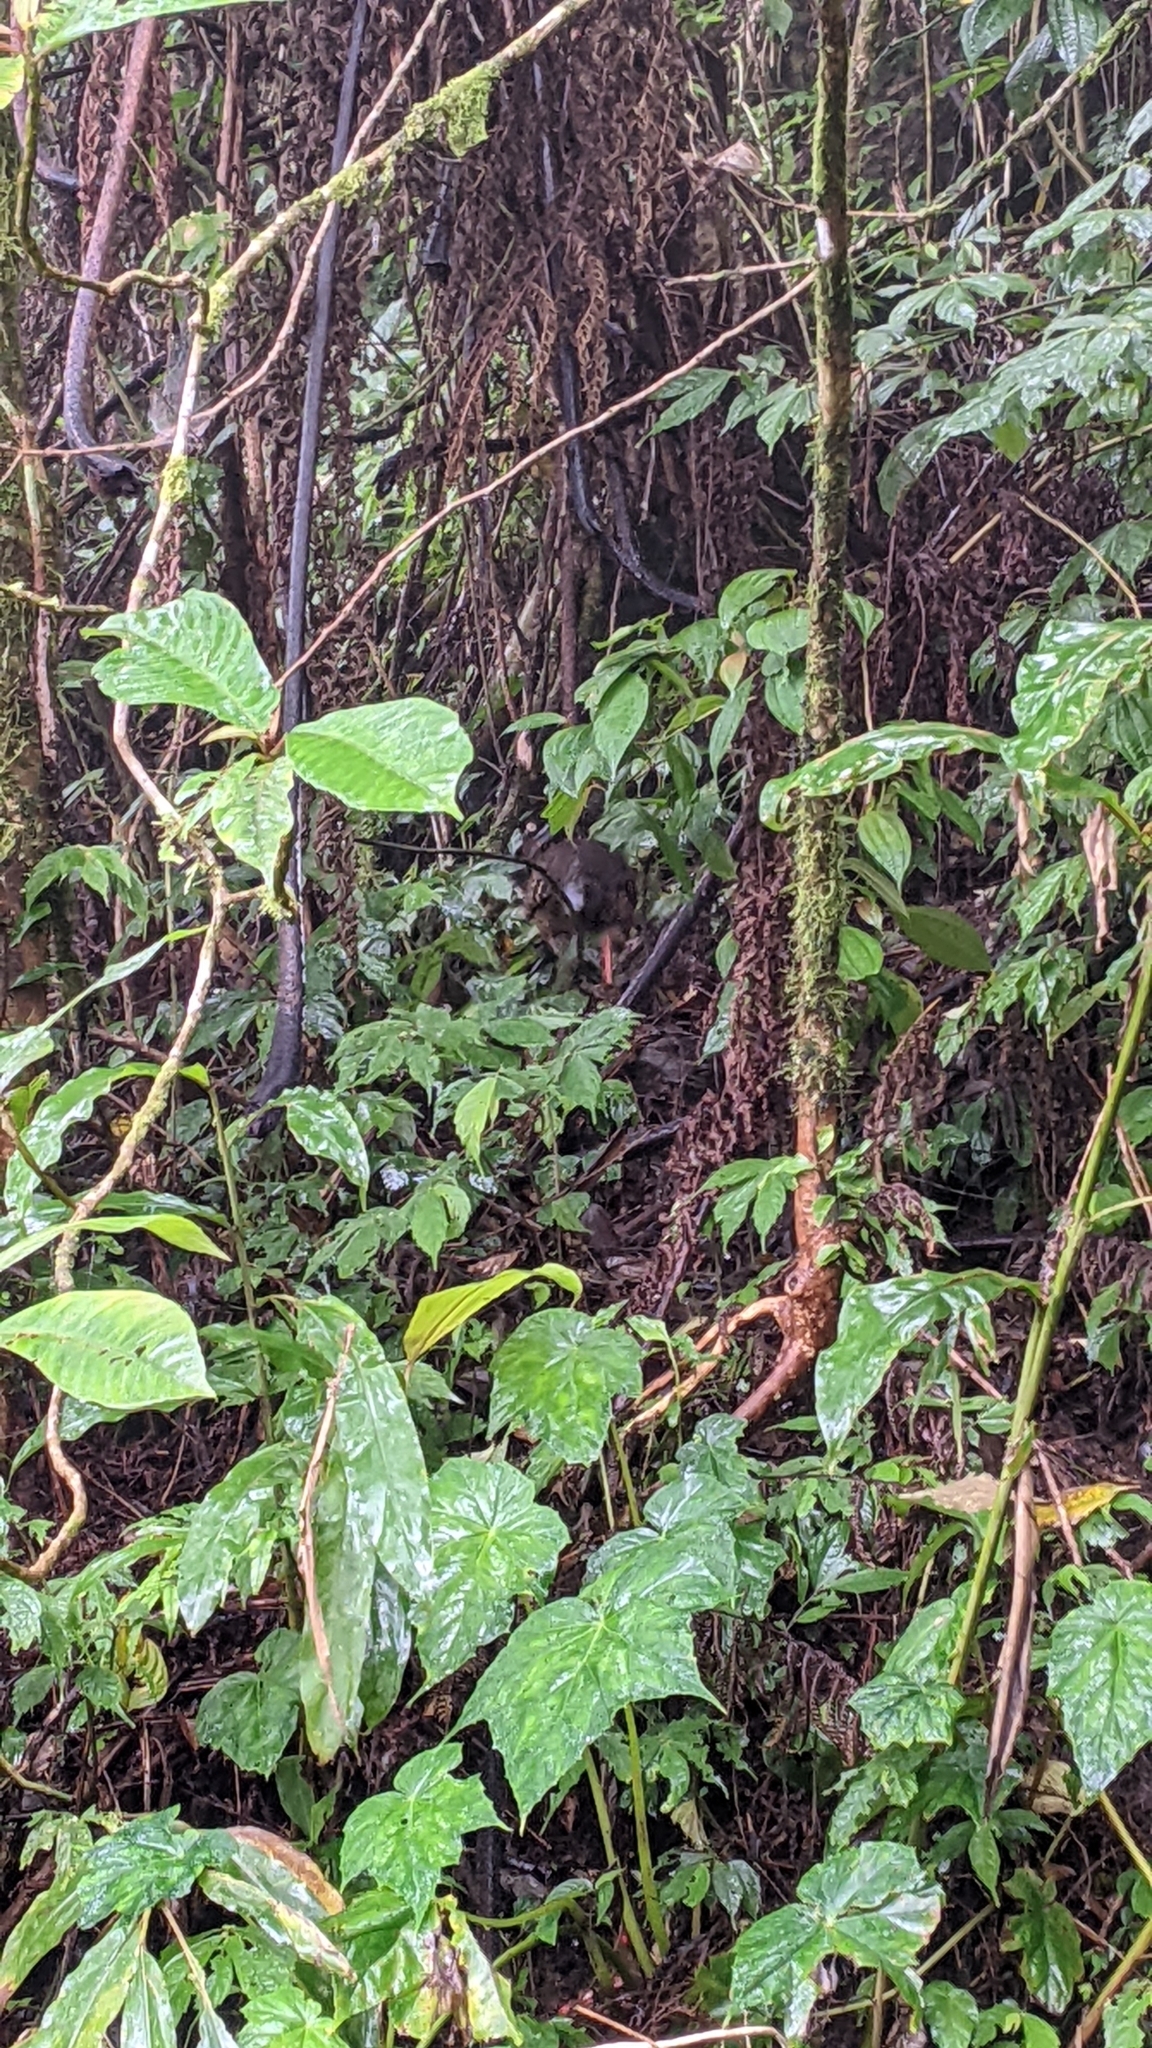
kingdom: Animalia
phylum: Chordata
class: Aves
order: Galliformes
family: Phasianidae
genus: Lophura
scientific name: Lophura swinhoii
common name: Swinhoe's pheasant
